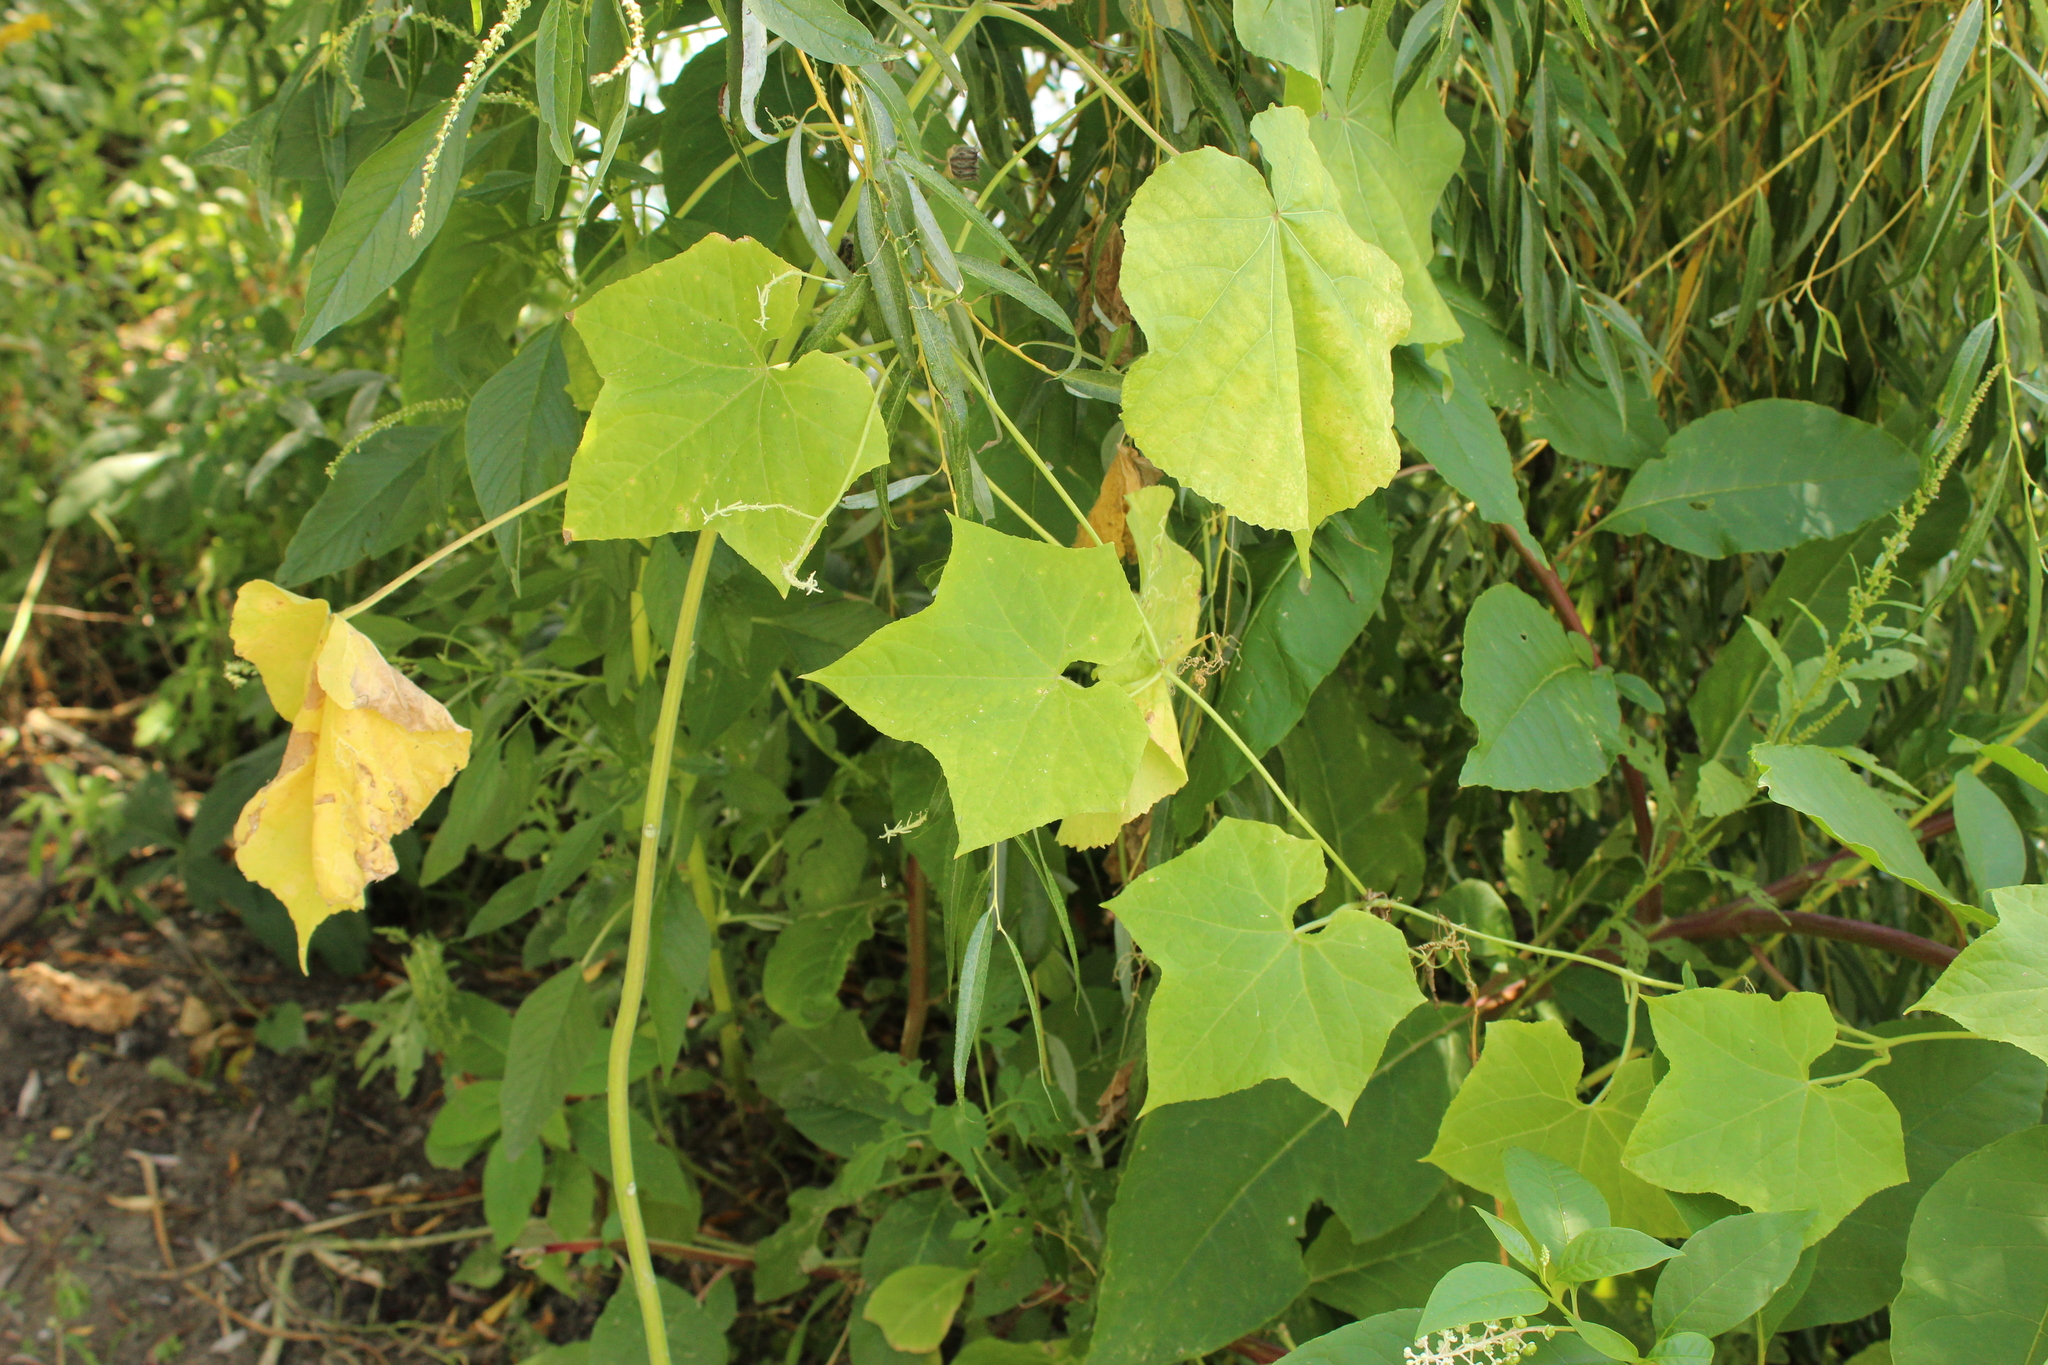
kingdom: Plantae
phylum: Tracheophyta
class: Magnoliopsida
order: Cucurbitales
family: Cucurbitaceae
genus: Sicyos
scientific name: Sicyos angulatus
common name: Angled burr cucumber
